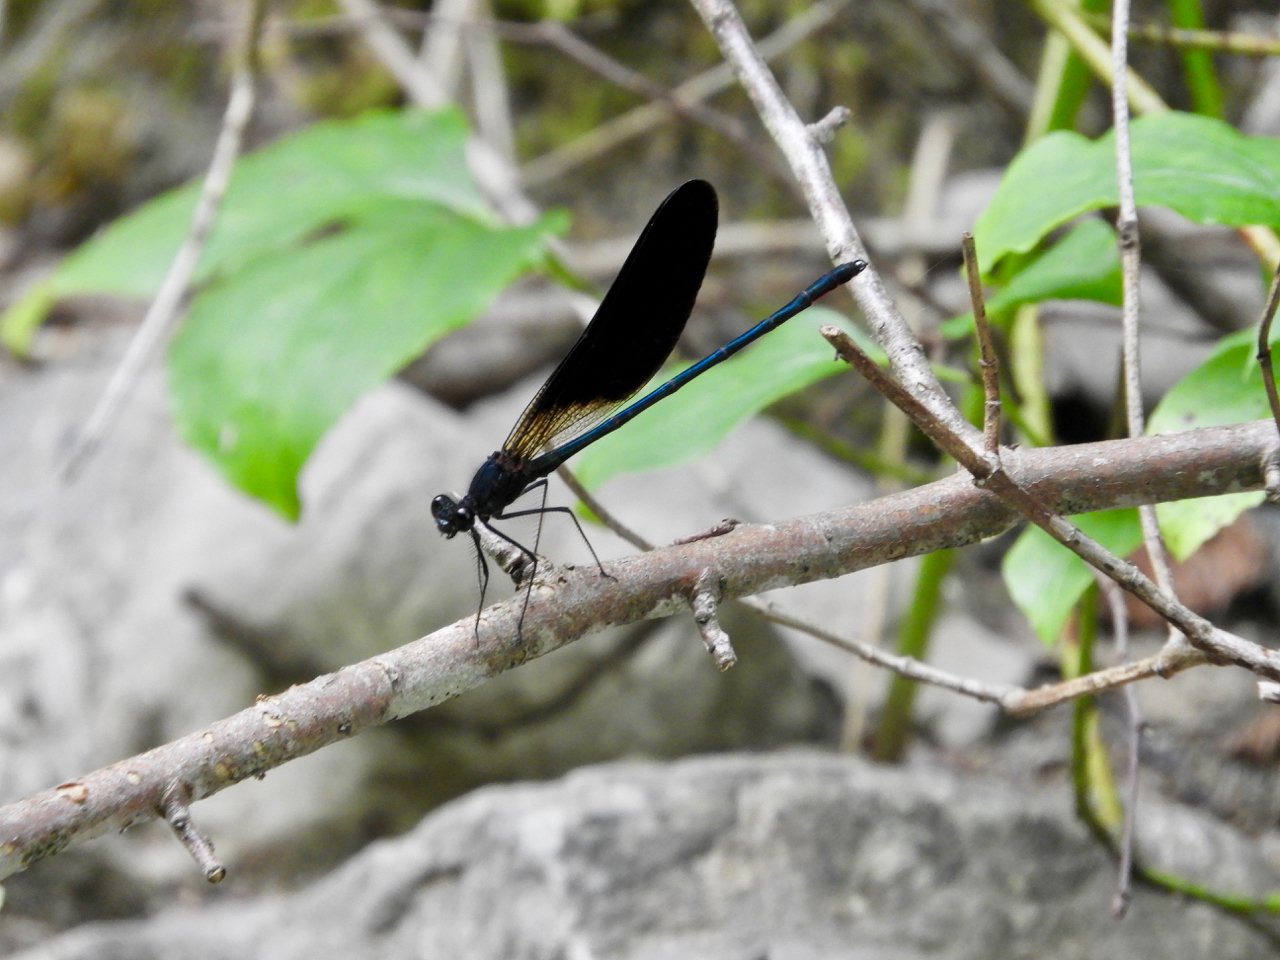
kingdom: Animalia
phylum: Arthropoda
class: Insecta
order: Odonata
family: Calopterygidae
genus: Calopteryx
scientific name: Calopteryx haemorrhoidalis
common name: Copper demoiselle
